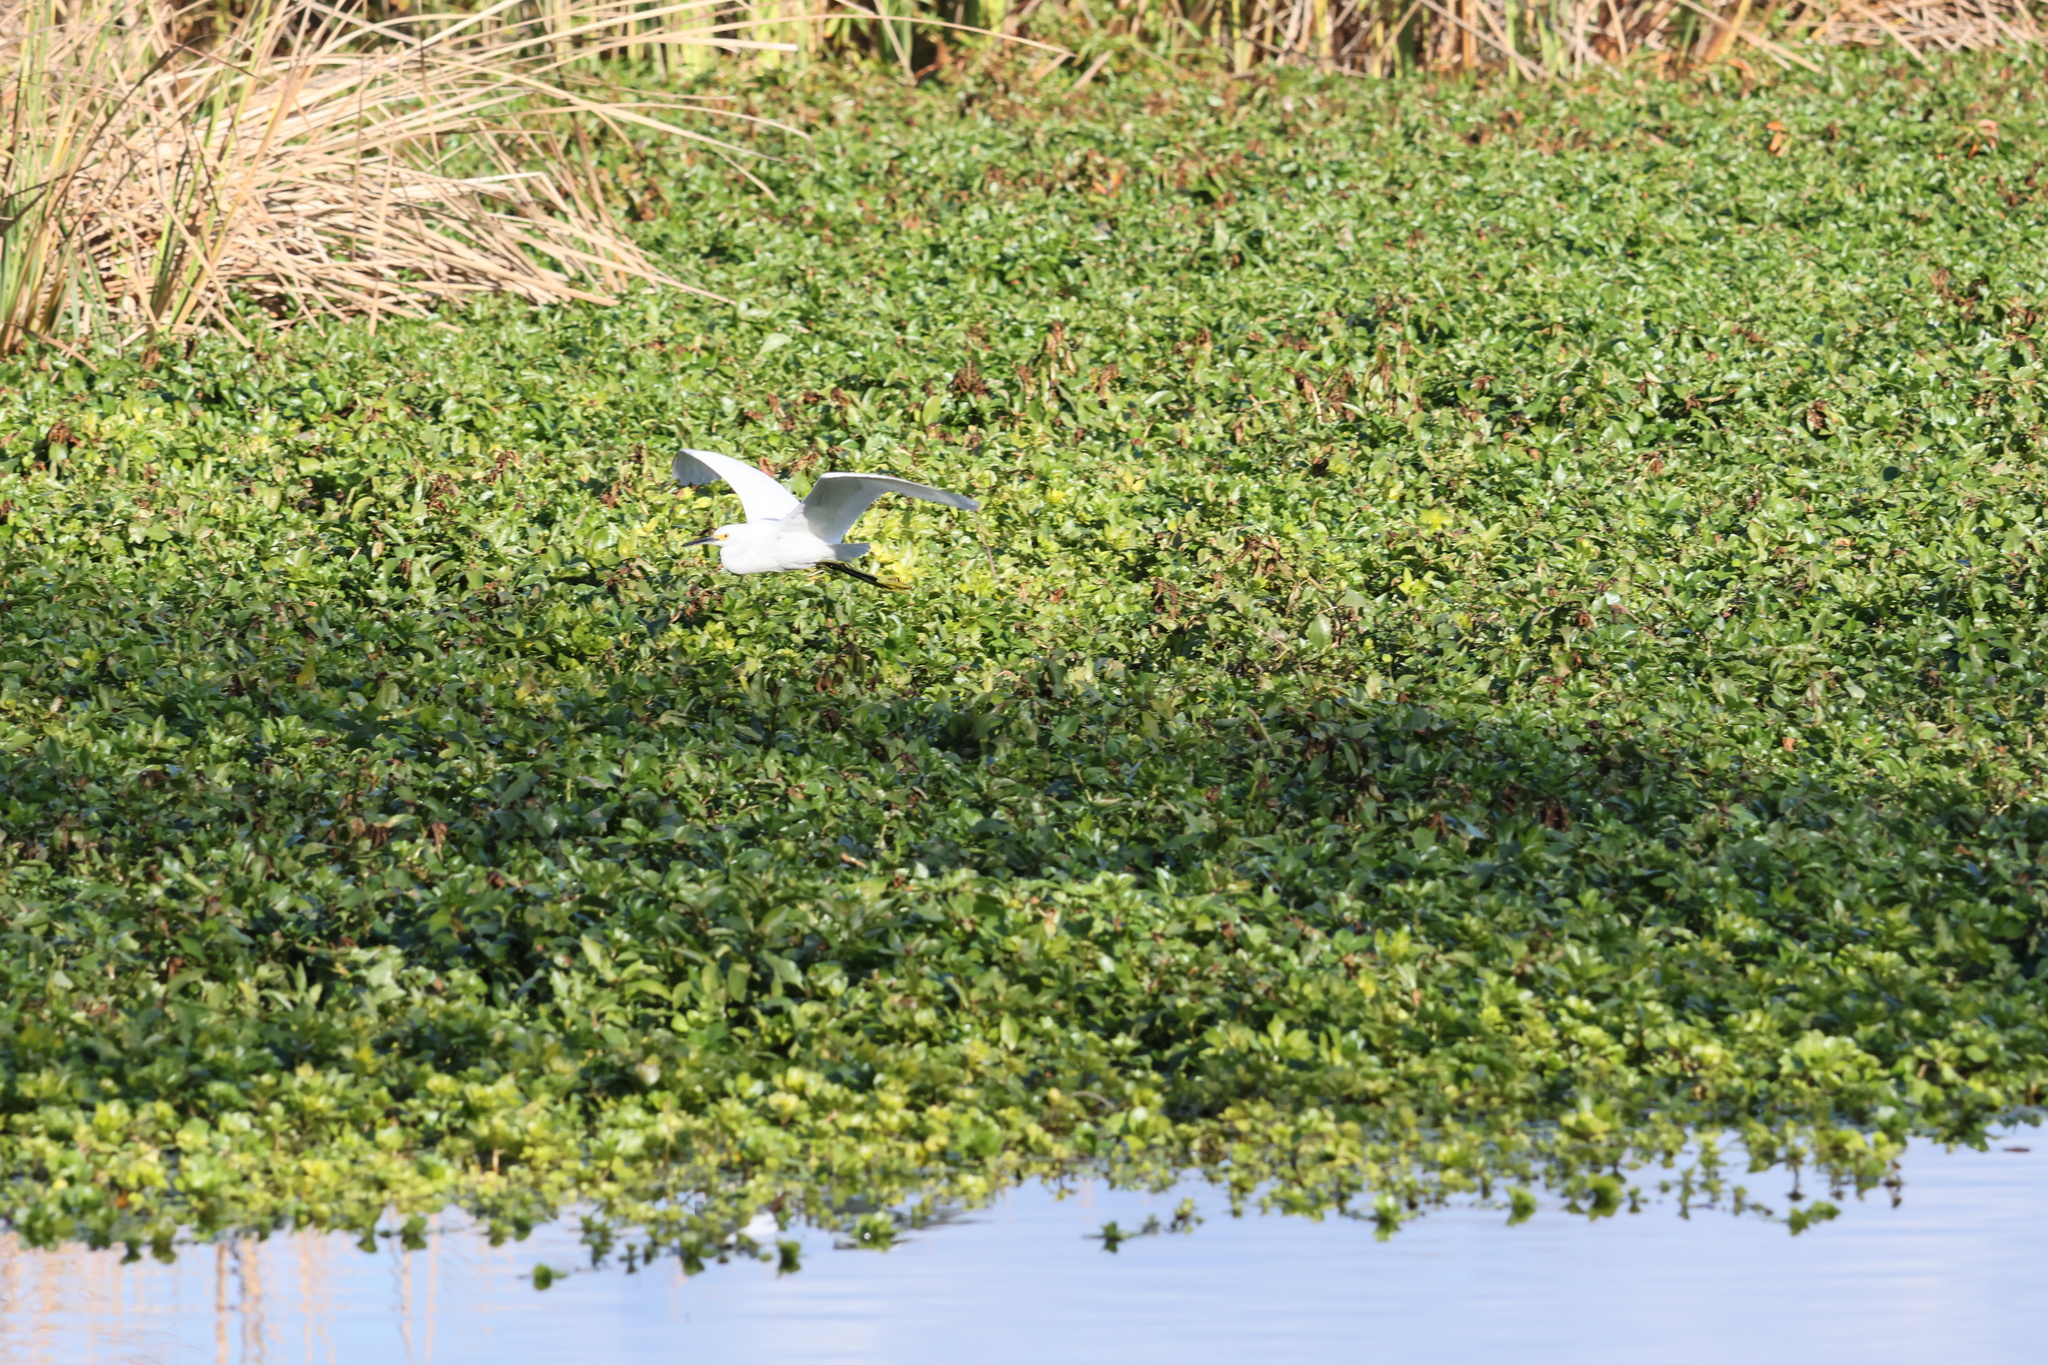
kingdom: Animalia
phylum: Chordata
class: Aves
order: Pelecaniformes
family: Ardeidae
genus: Egretta
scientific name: Egretta thula
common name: Snowy egret
